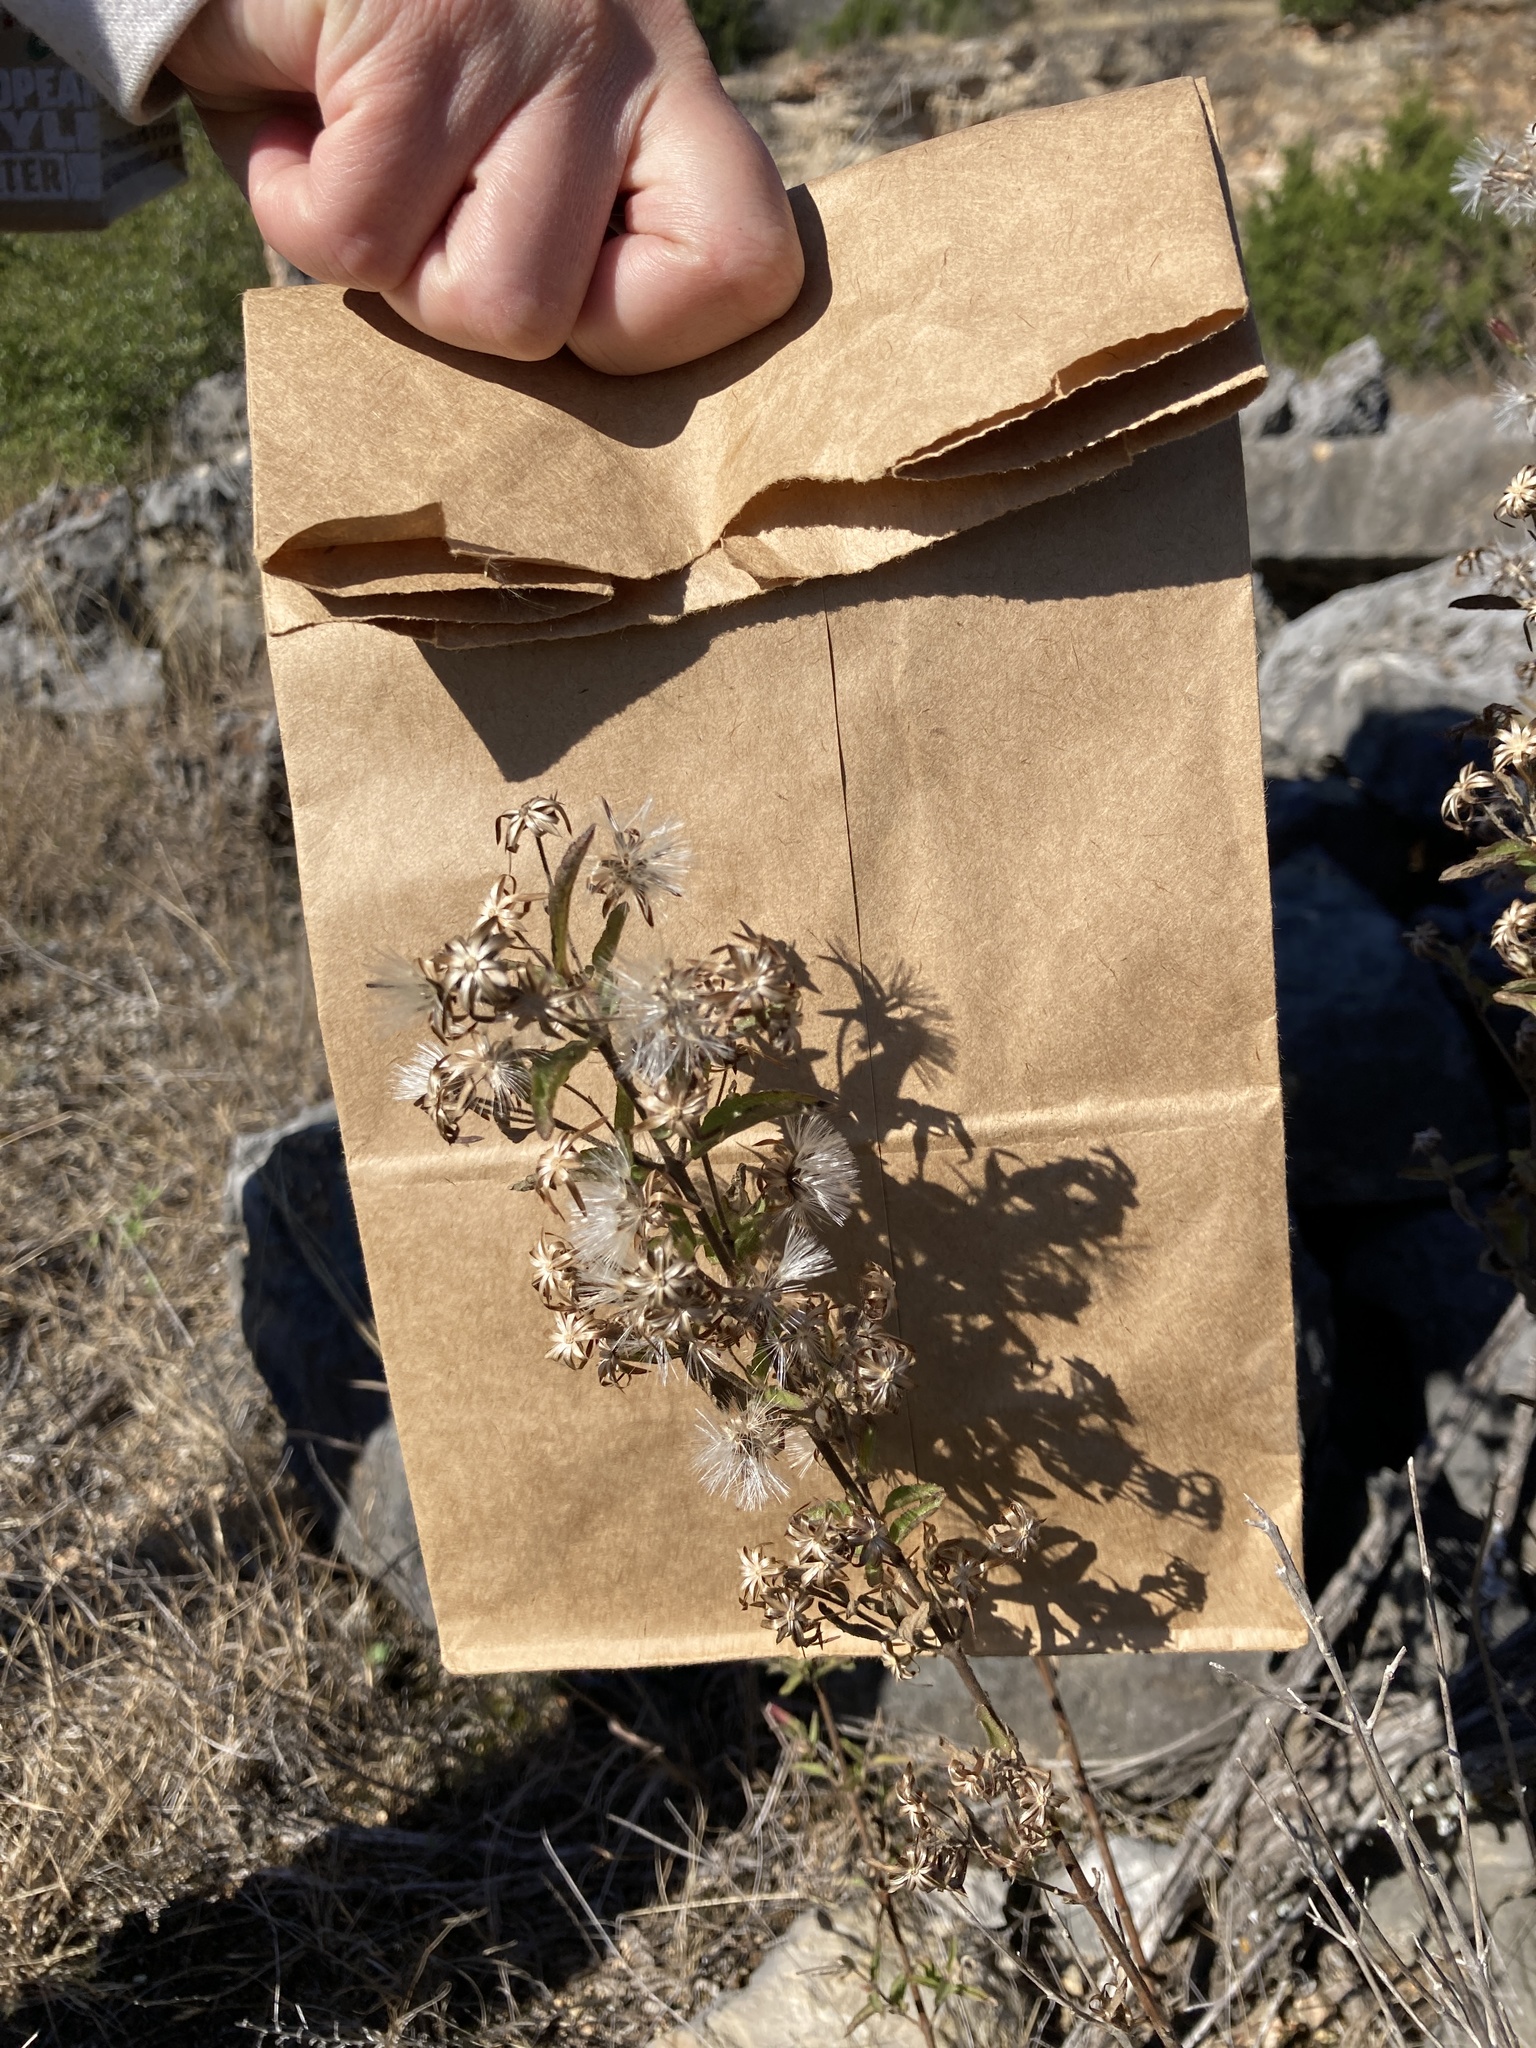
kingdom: Plantae
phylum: Tracheophyta
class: Magnoliopsida
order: Asterales
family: Asteraceae
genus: Brickellia
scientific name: Brickellia cylindracea
